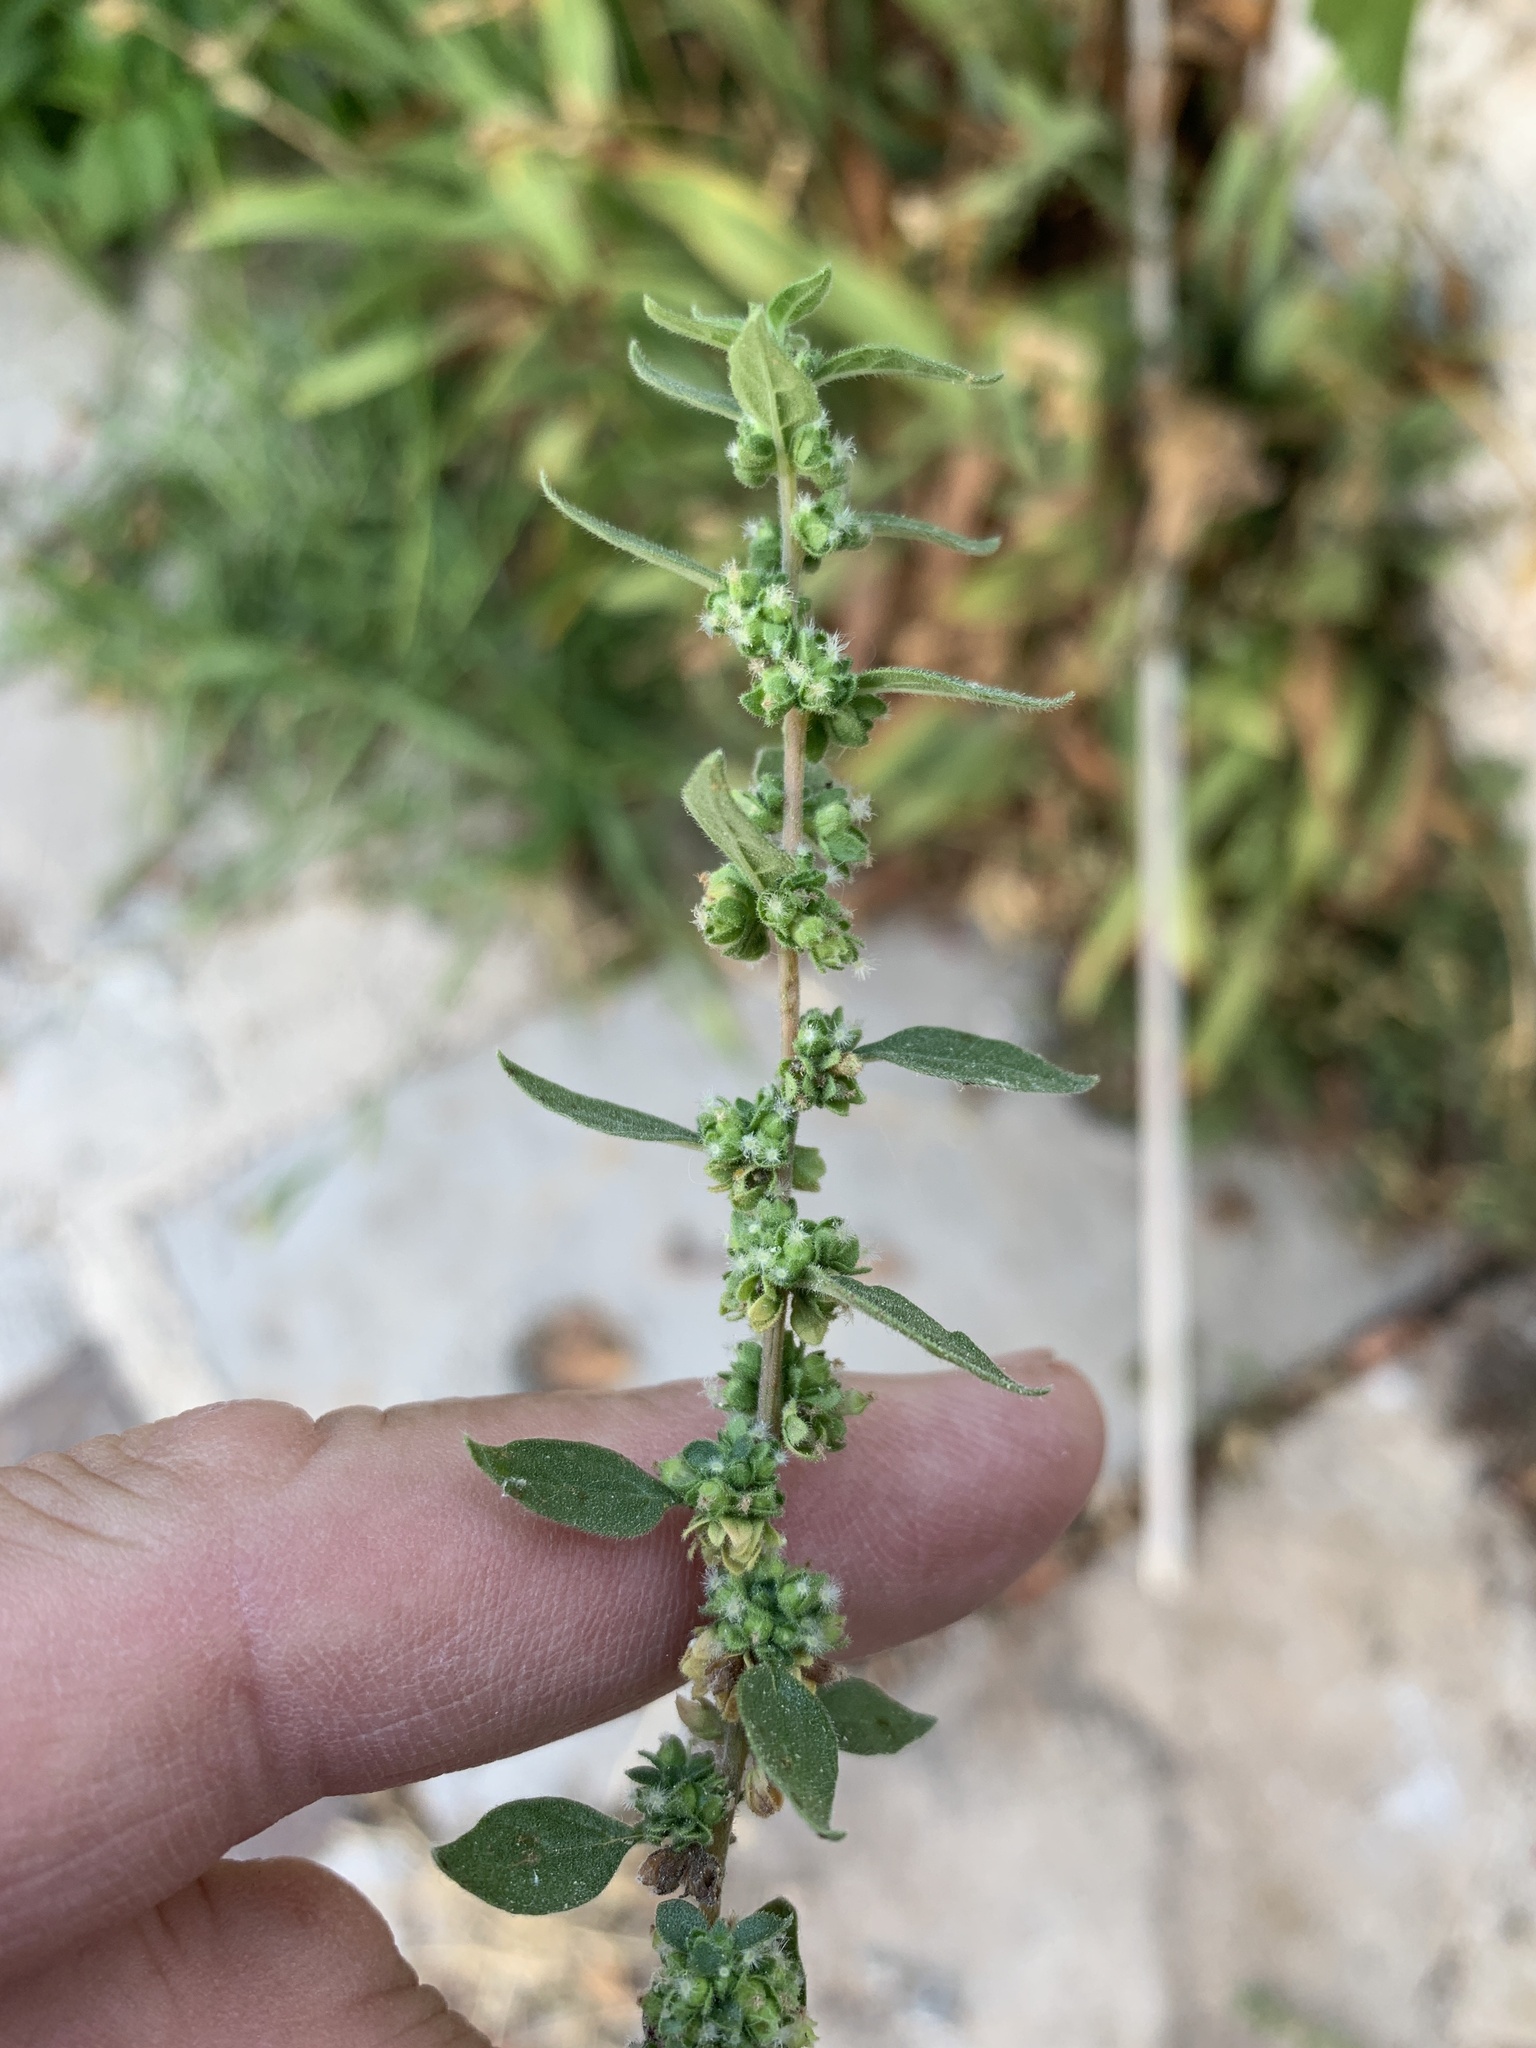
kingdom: Plantae
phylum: Tracheophyta
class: Magnoliopsida
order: Rosales
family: Urticaceae
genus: Parietaria
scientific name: Parietaria judaica
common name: Pellitory-of-the-wall
